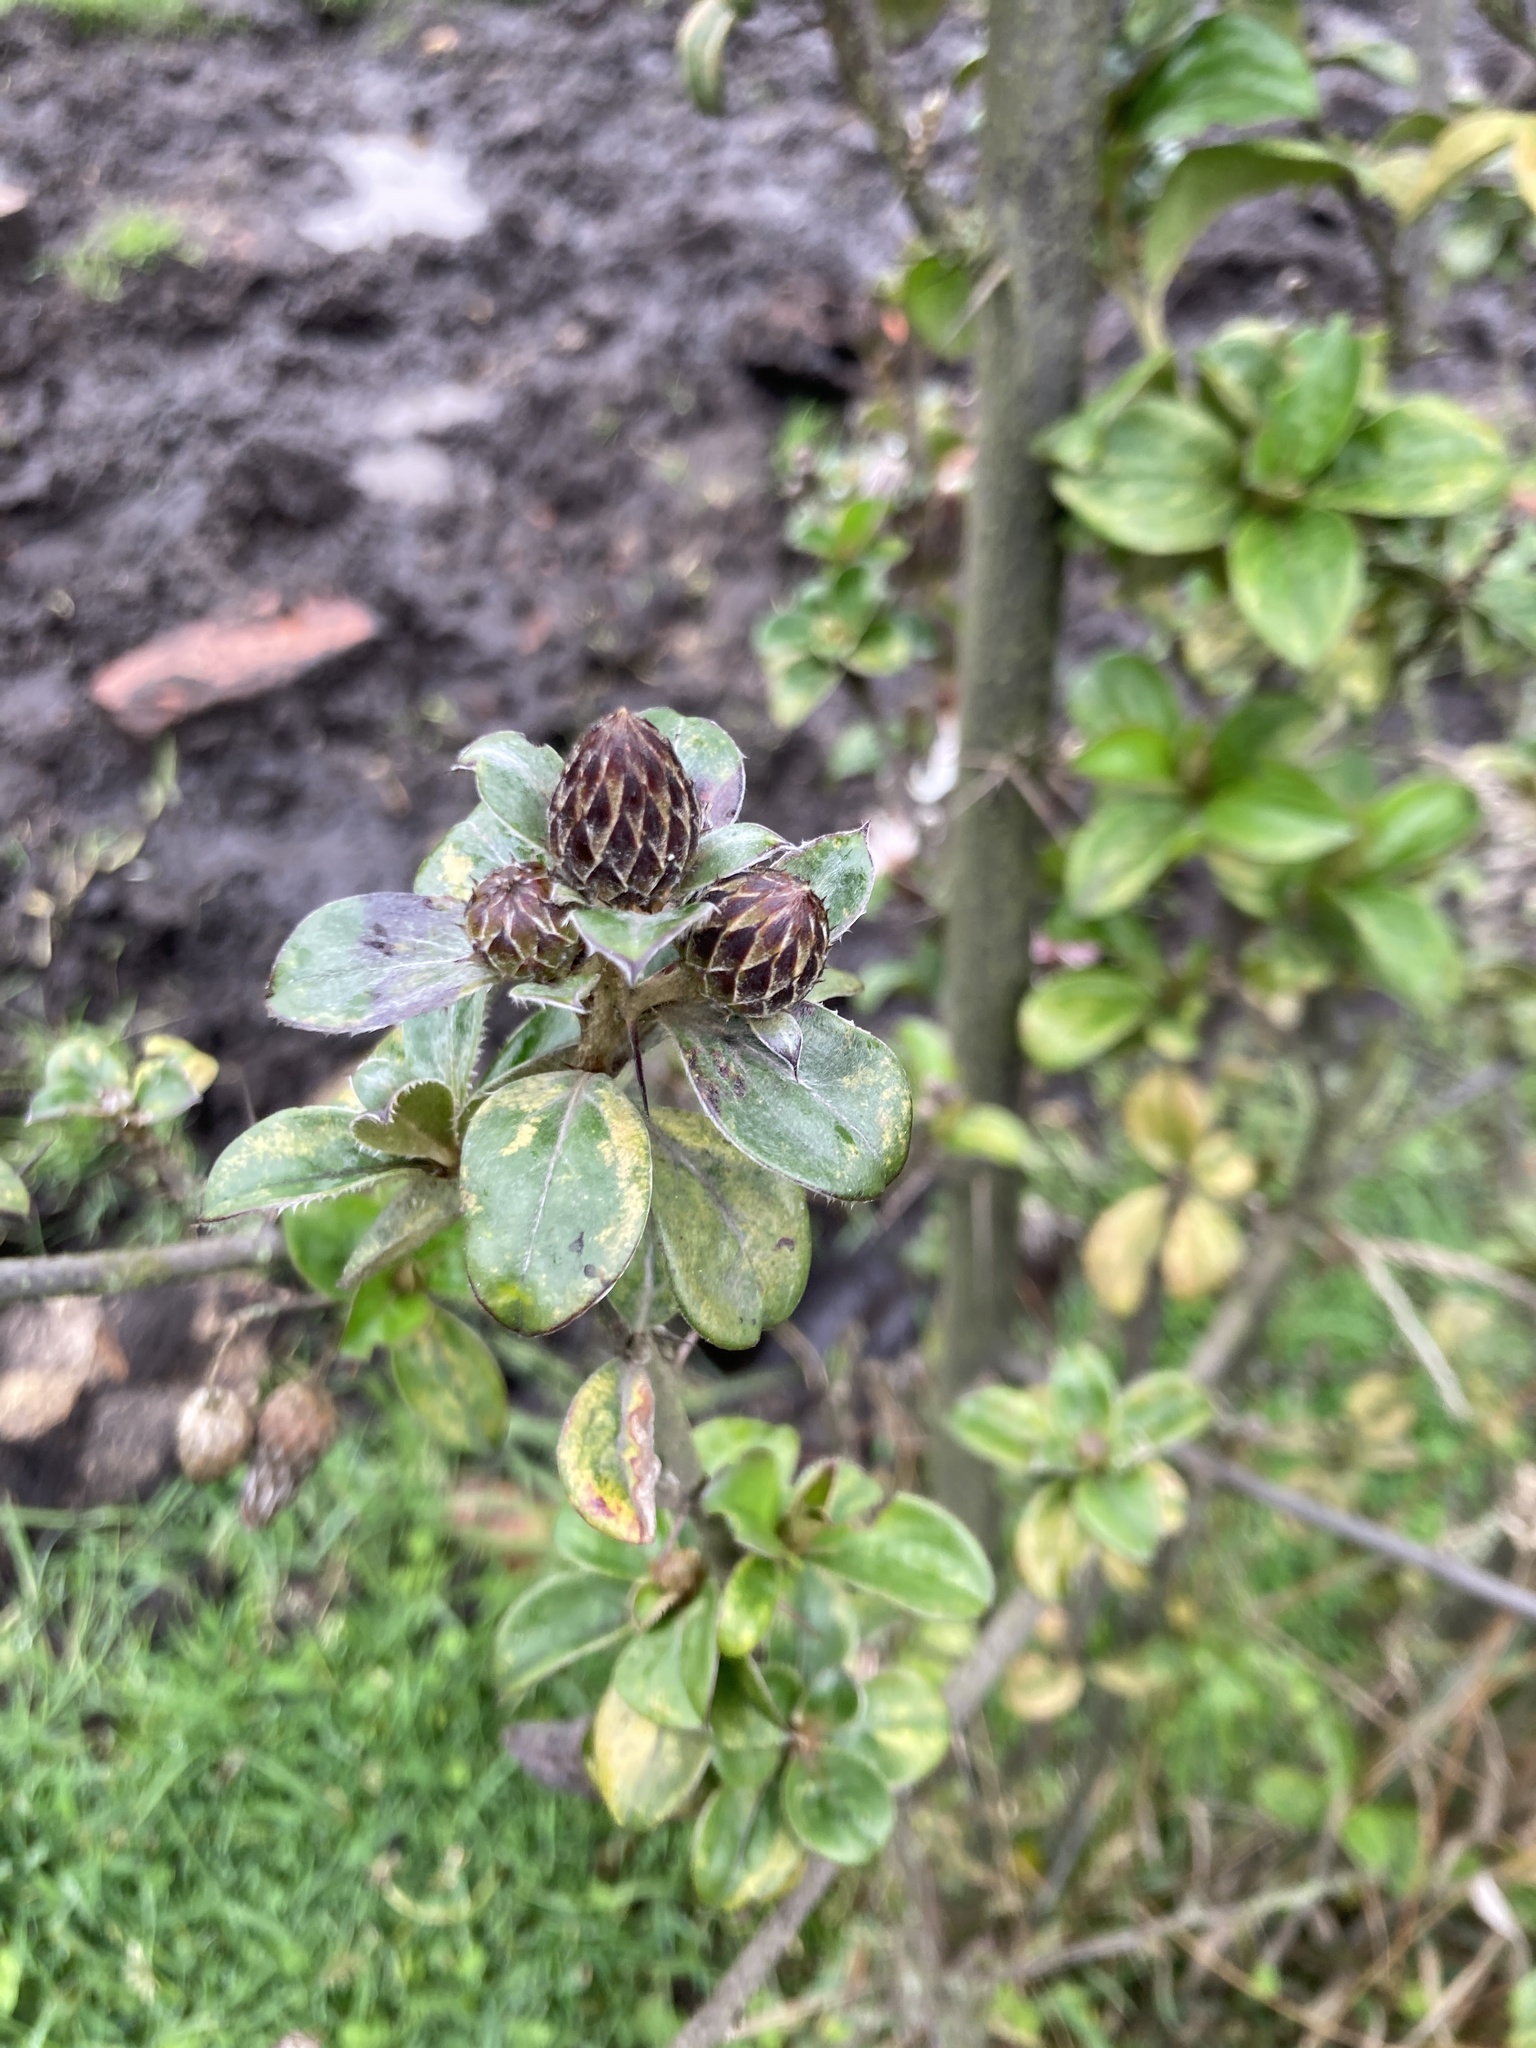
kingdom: Plantae
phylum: Tracheophyta
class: Magnoliopsida
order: Asterales
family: Asteraceae
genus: Barnadesia
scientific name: Barnadesia spinosa
